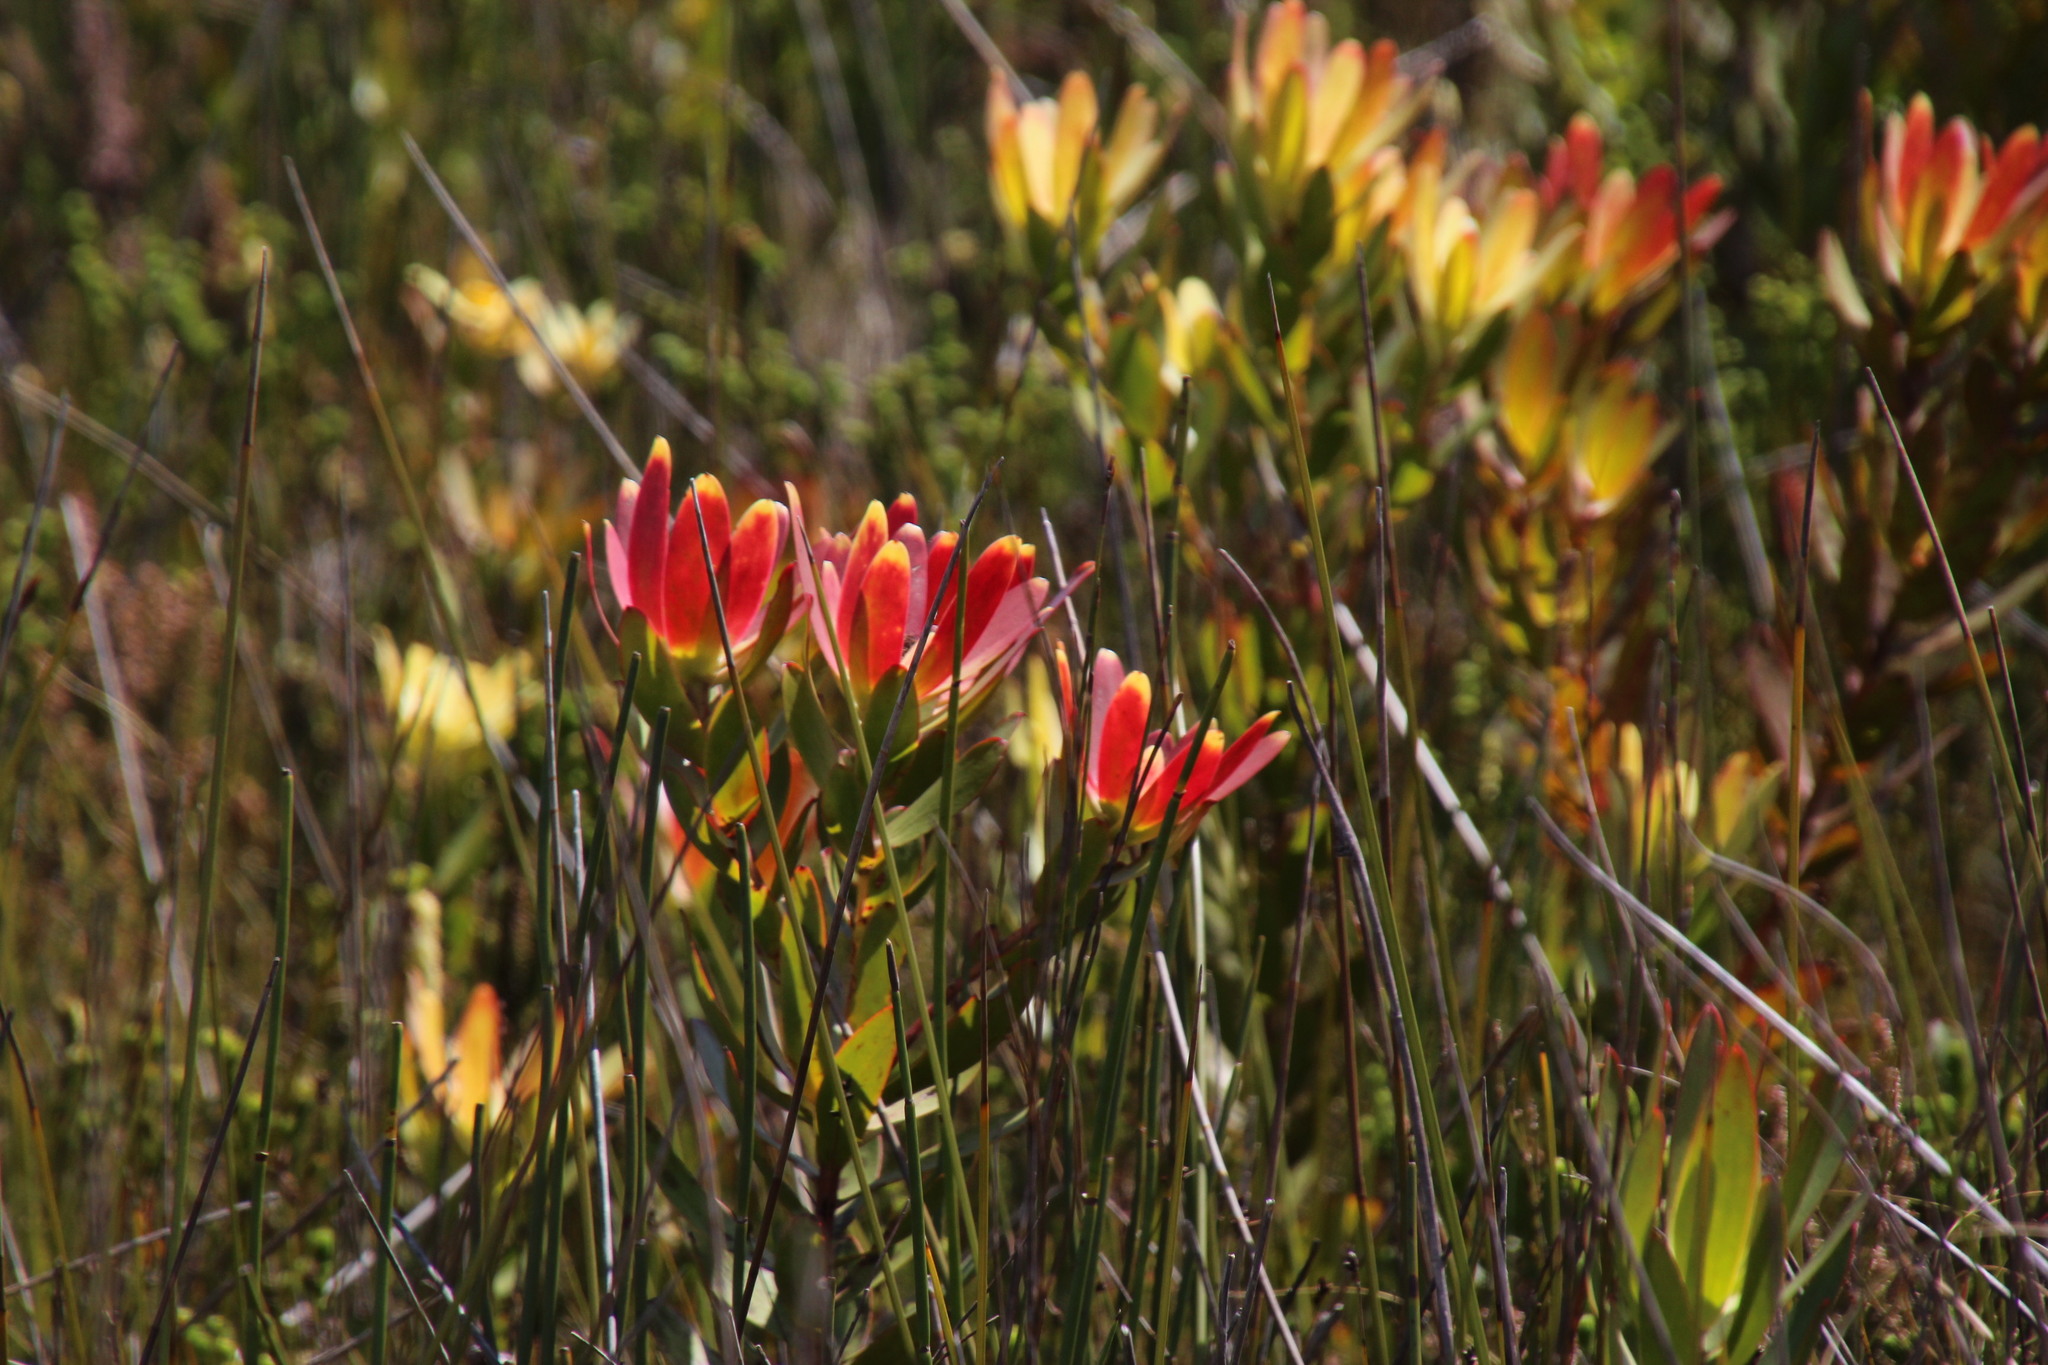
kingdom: Plantae
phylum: Tracheophyta
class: Magnoliopsida
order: Proteales
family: Proteaceae
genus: Leucadendron
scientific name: Leucadendron gandogeri
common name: Broad-leaf conebush
